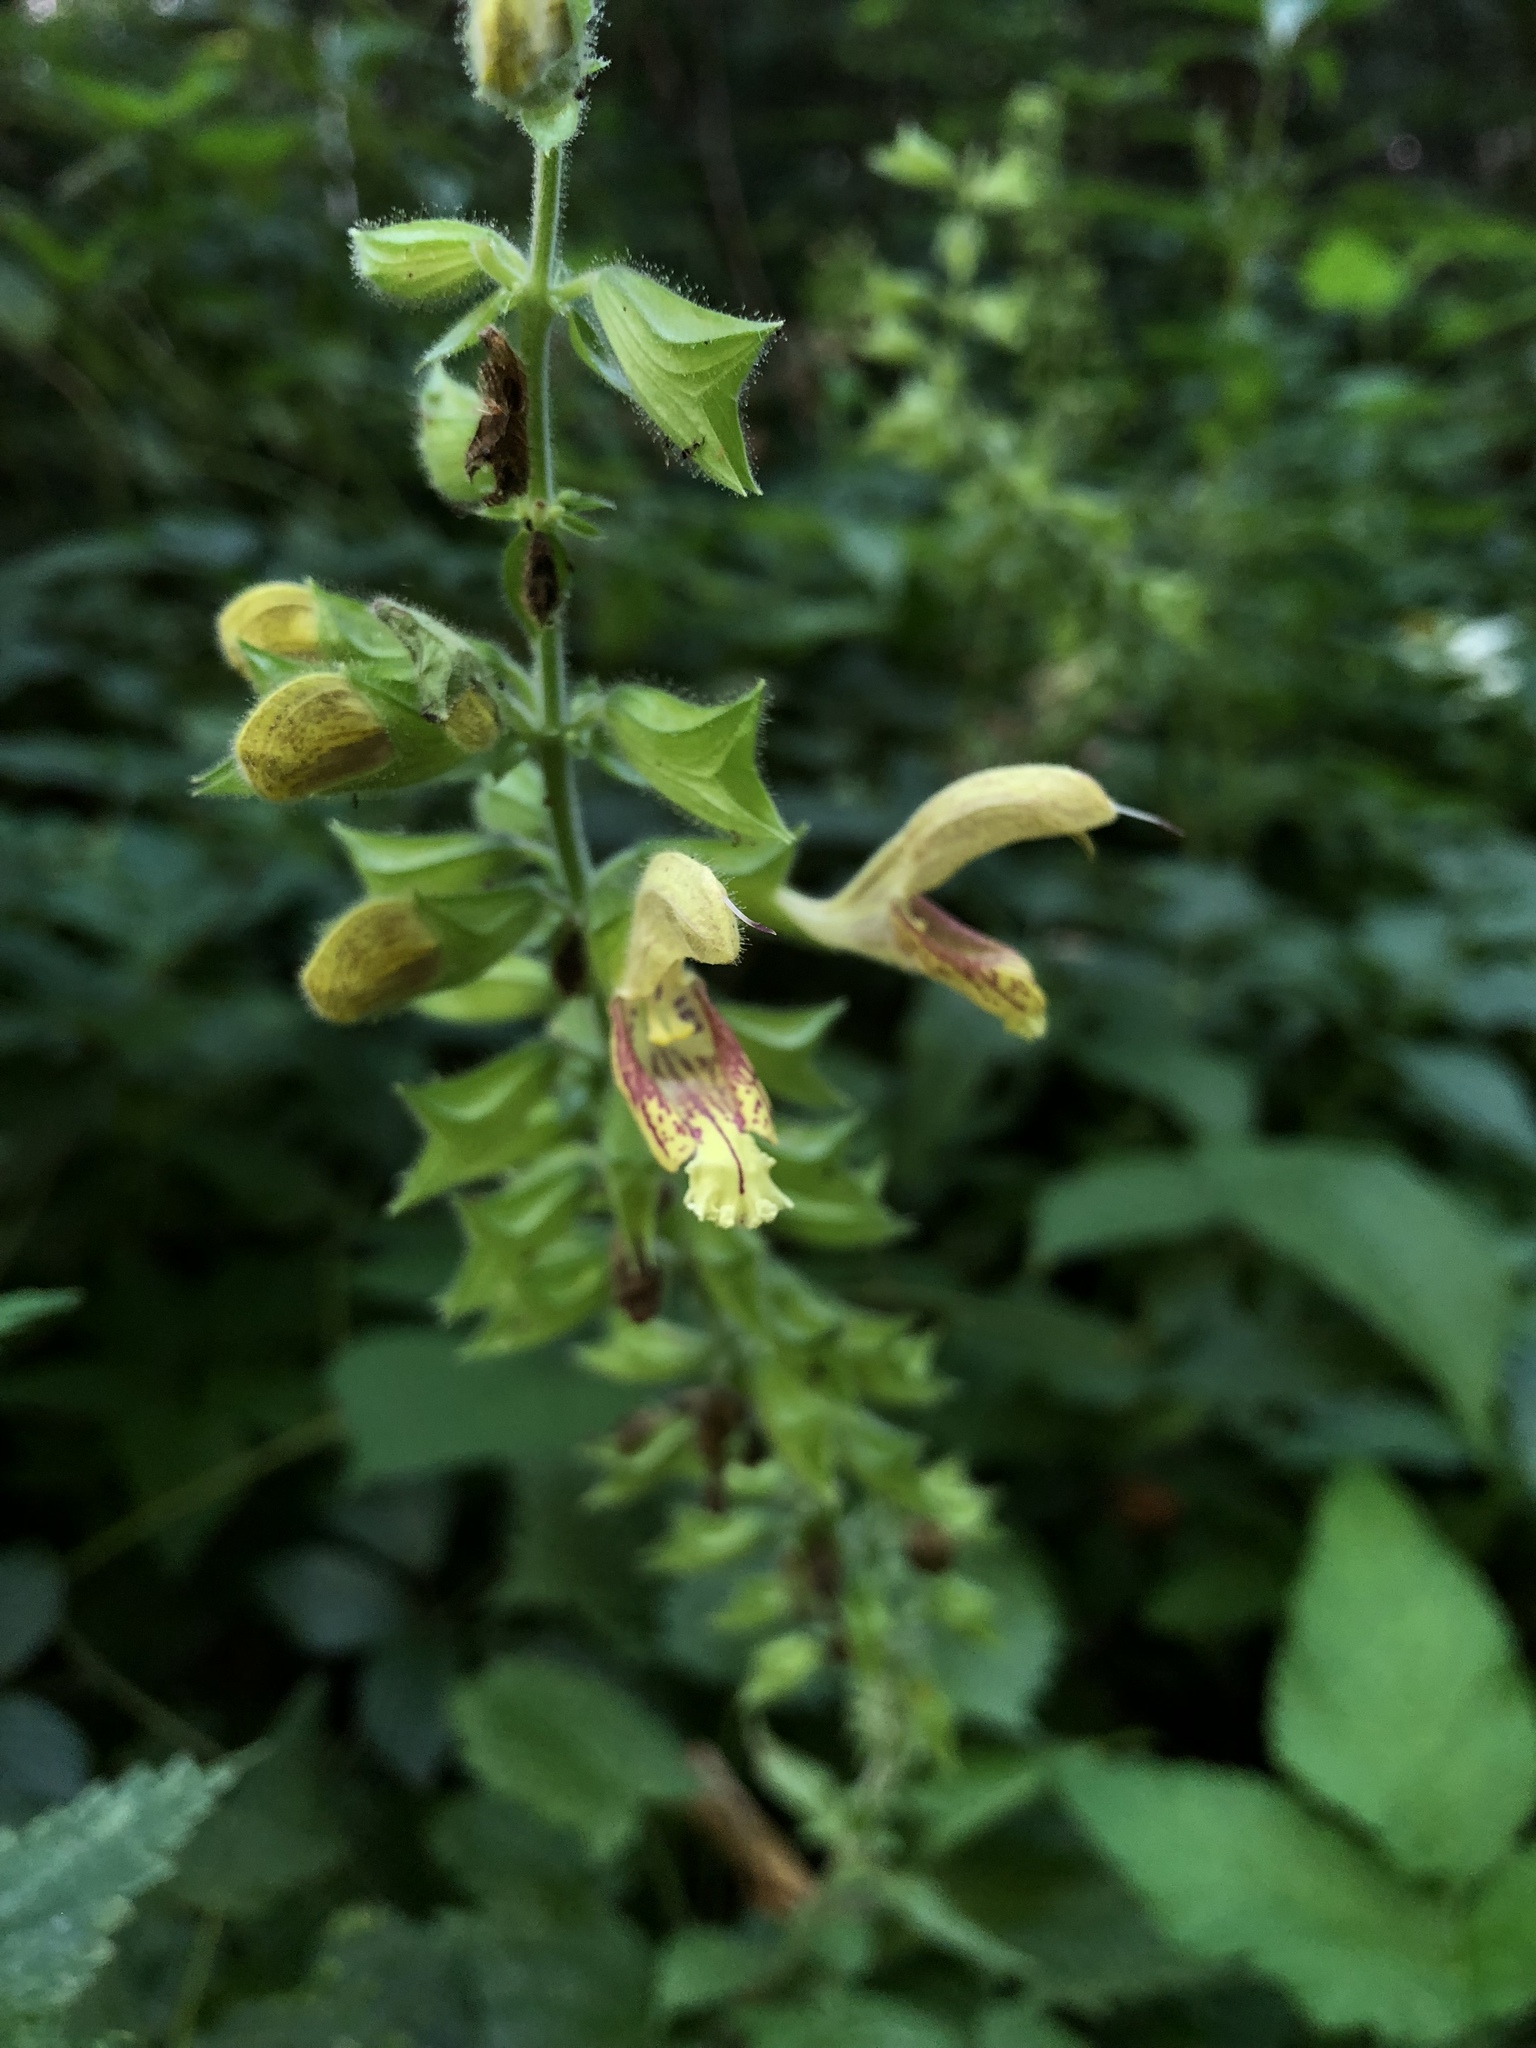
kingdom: Plantae
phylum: Tracheophyta
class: Magnoliopsida
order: Lamiales
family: Lamiaceae
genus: Salvia
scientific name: Salvia glutinosa
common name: Sticky clary
